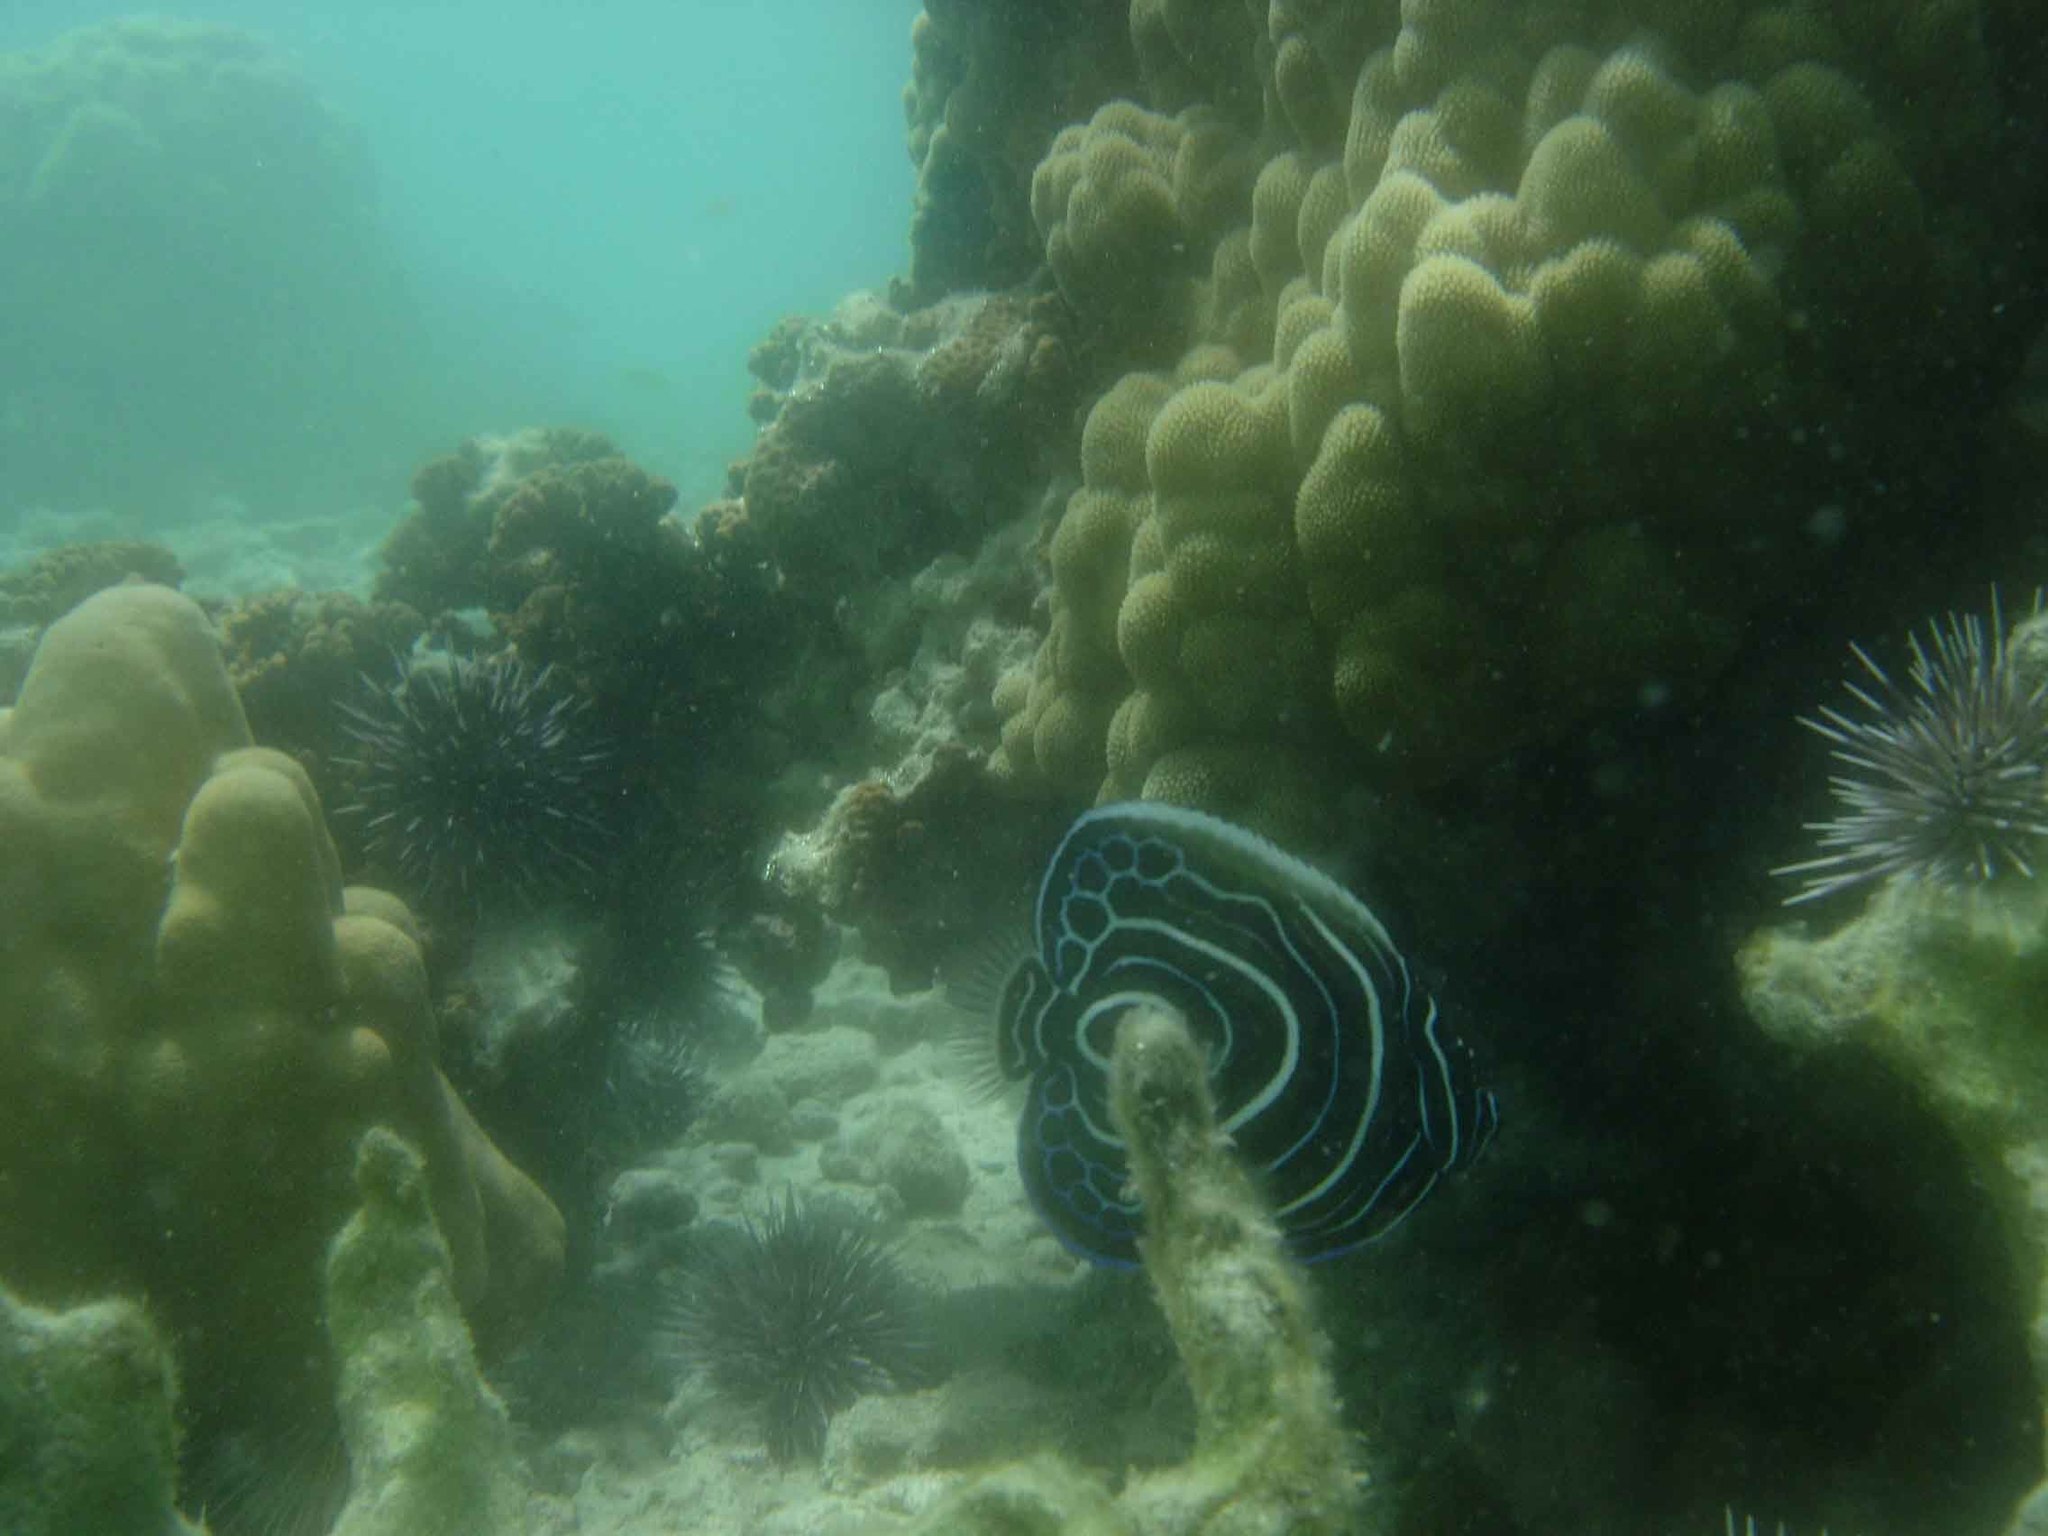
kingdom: Animalia
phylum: Chordata
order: Perciformes
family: Pomacanthidae
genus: Pomacanthus
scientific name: Pomacanthus imperator
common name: Emperor angelfish
